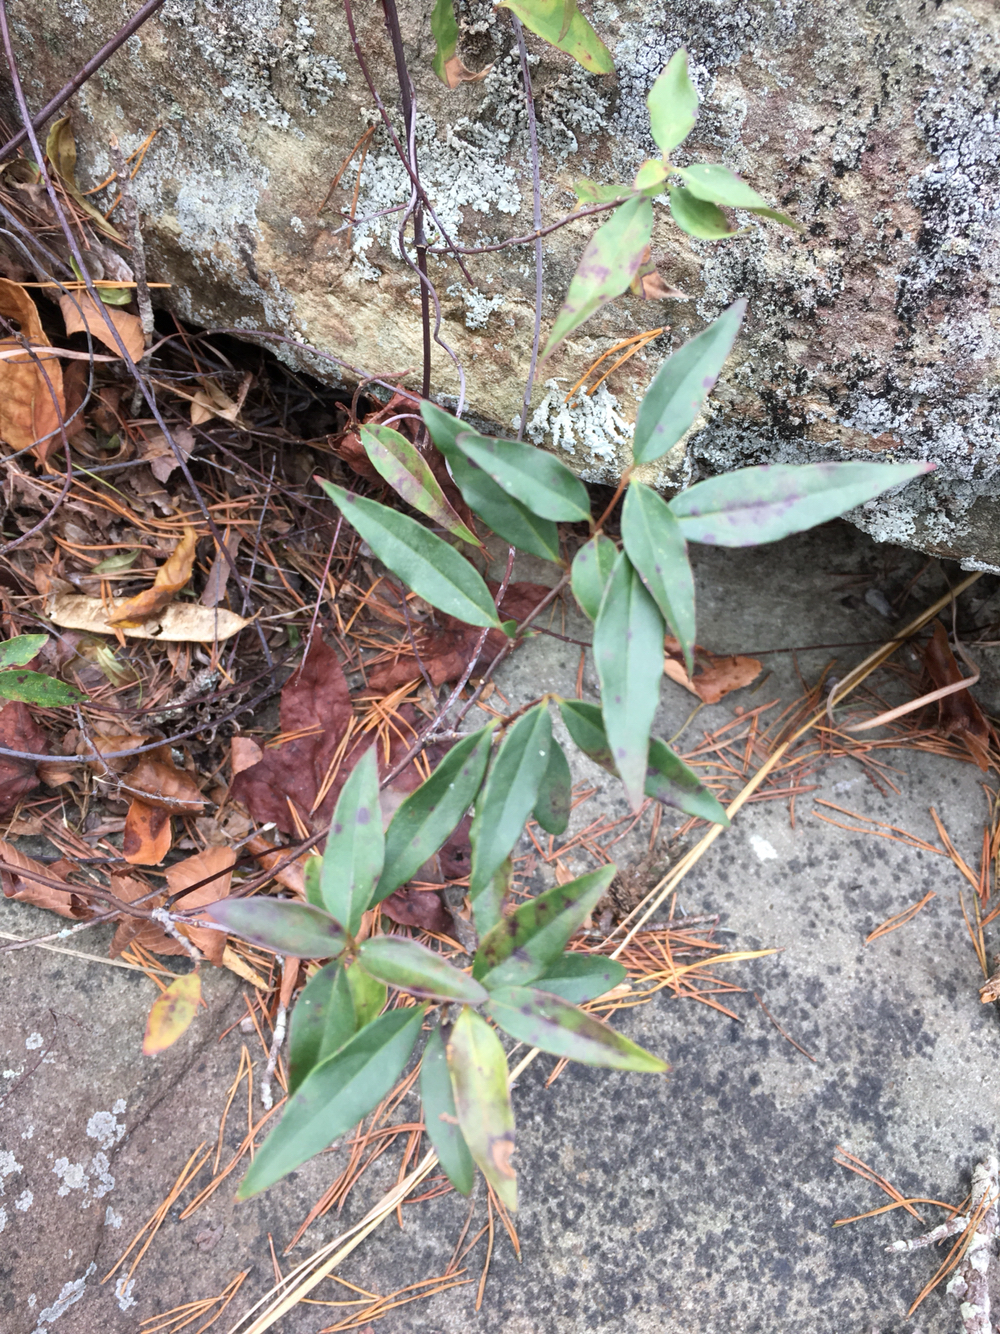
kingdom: Plantae
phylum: Tracheophyta
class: Magnoliopsida
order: Gentianales
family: Gelsemiaceae
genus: Gelsemium
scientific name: Gelsemium sempervirens
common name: Carolina-jasmine
